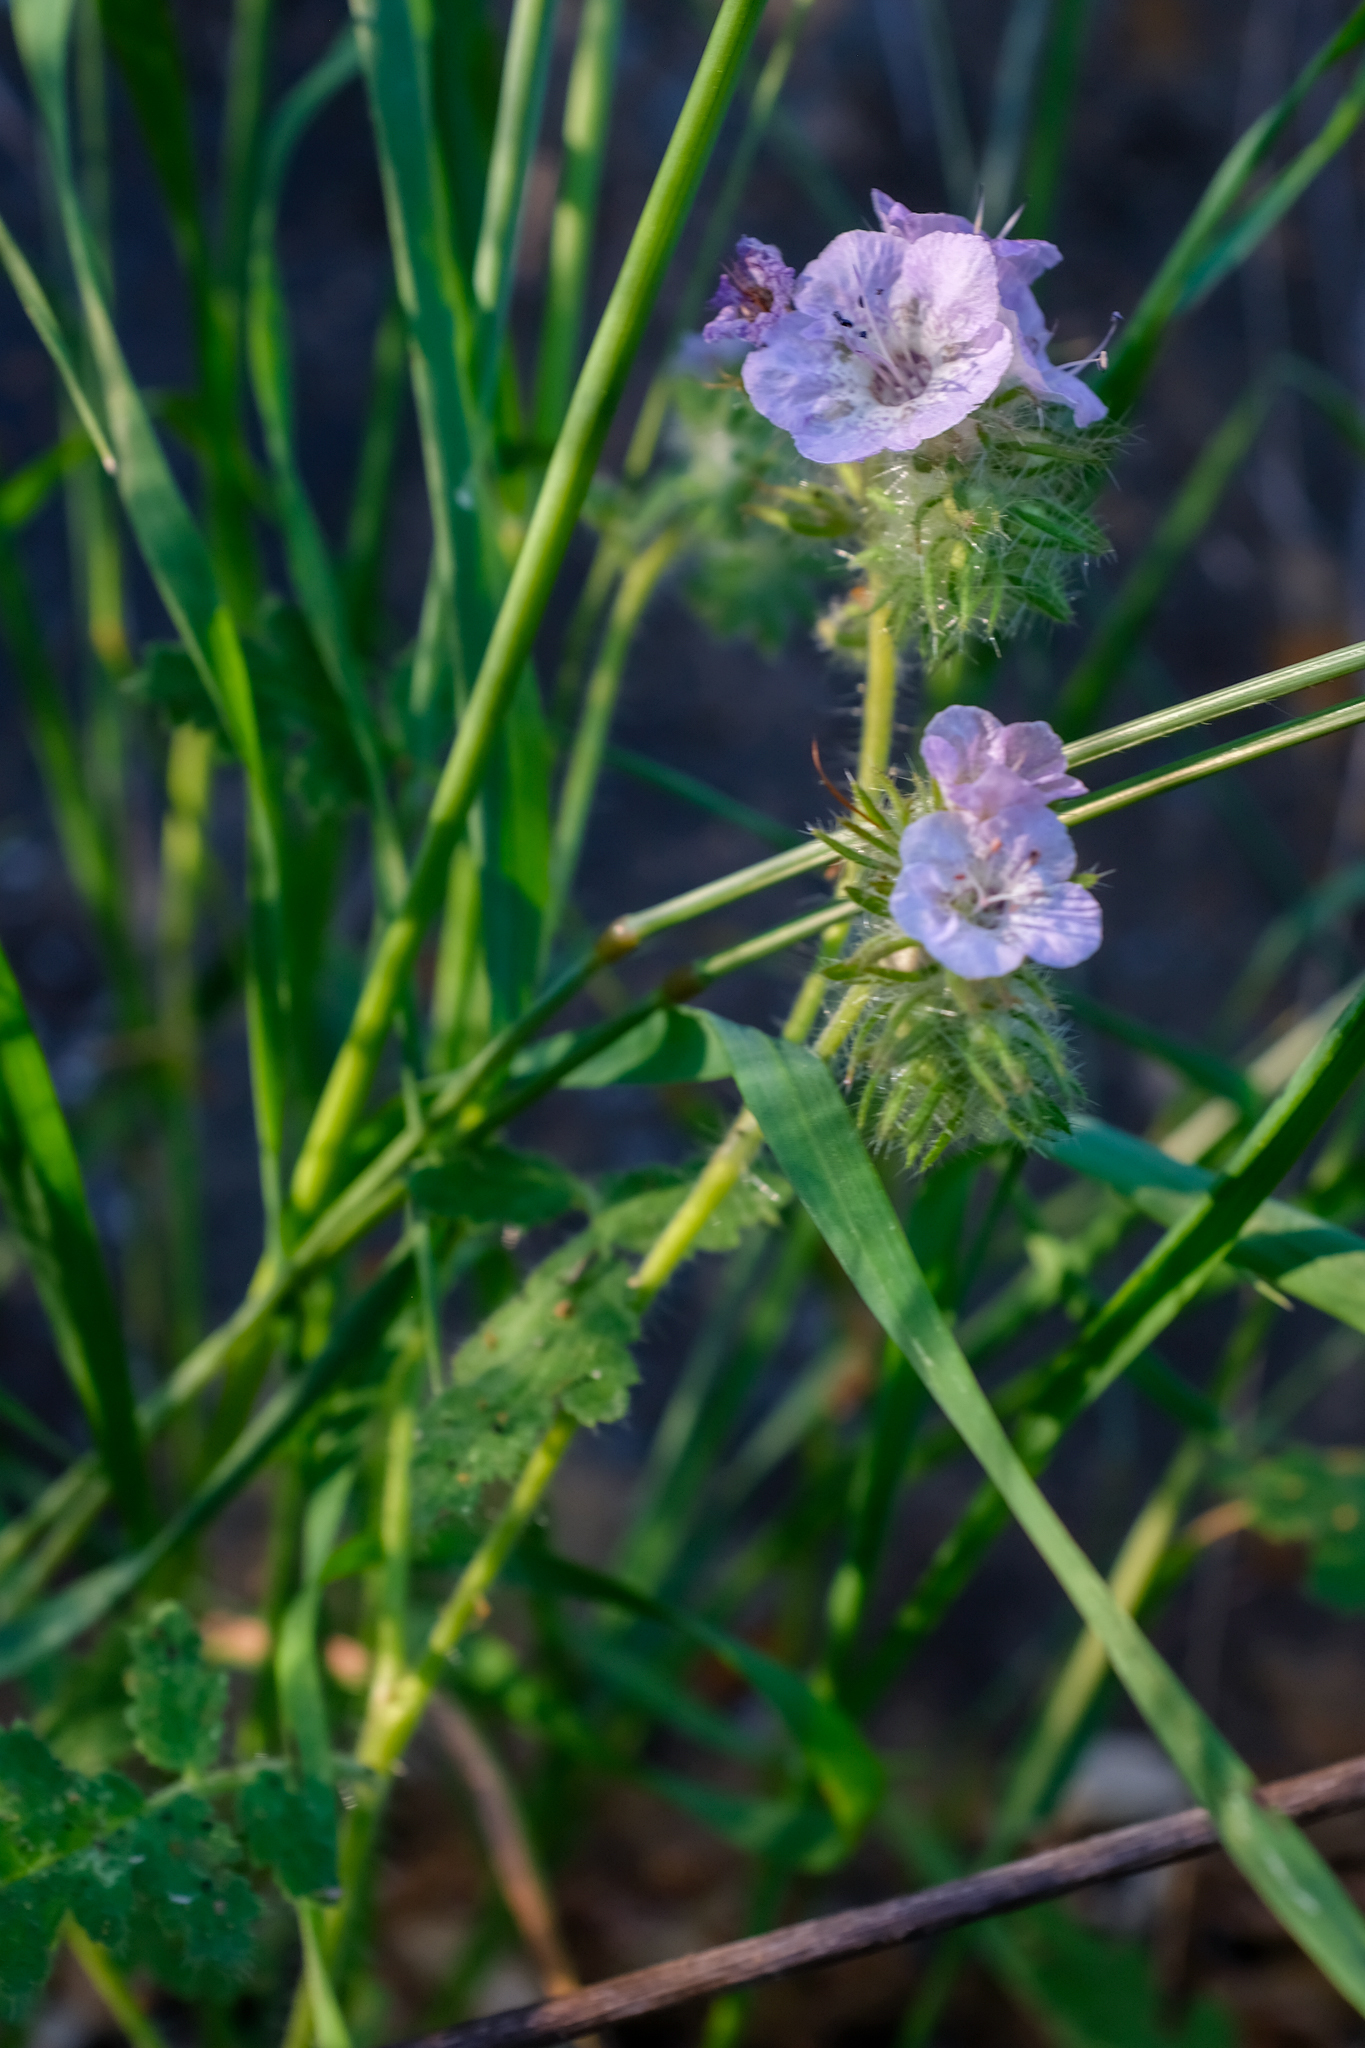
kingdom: Plantae
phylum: Tracheophyta
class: Magnoliopsida
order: Boraginales
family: Hydrophyllaceae
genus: Phacelia
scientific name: Phacelia cicutaria
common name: Caterpillar phacelia
